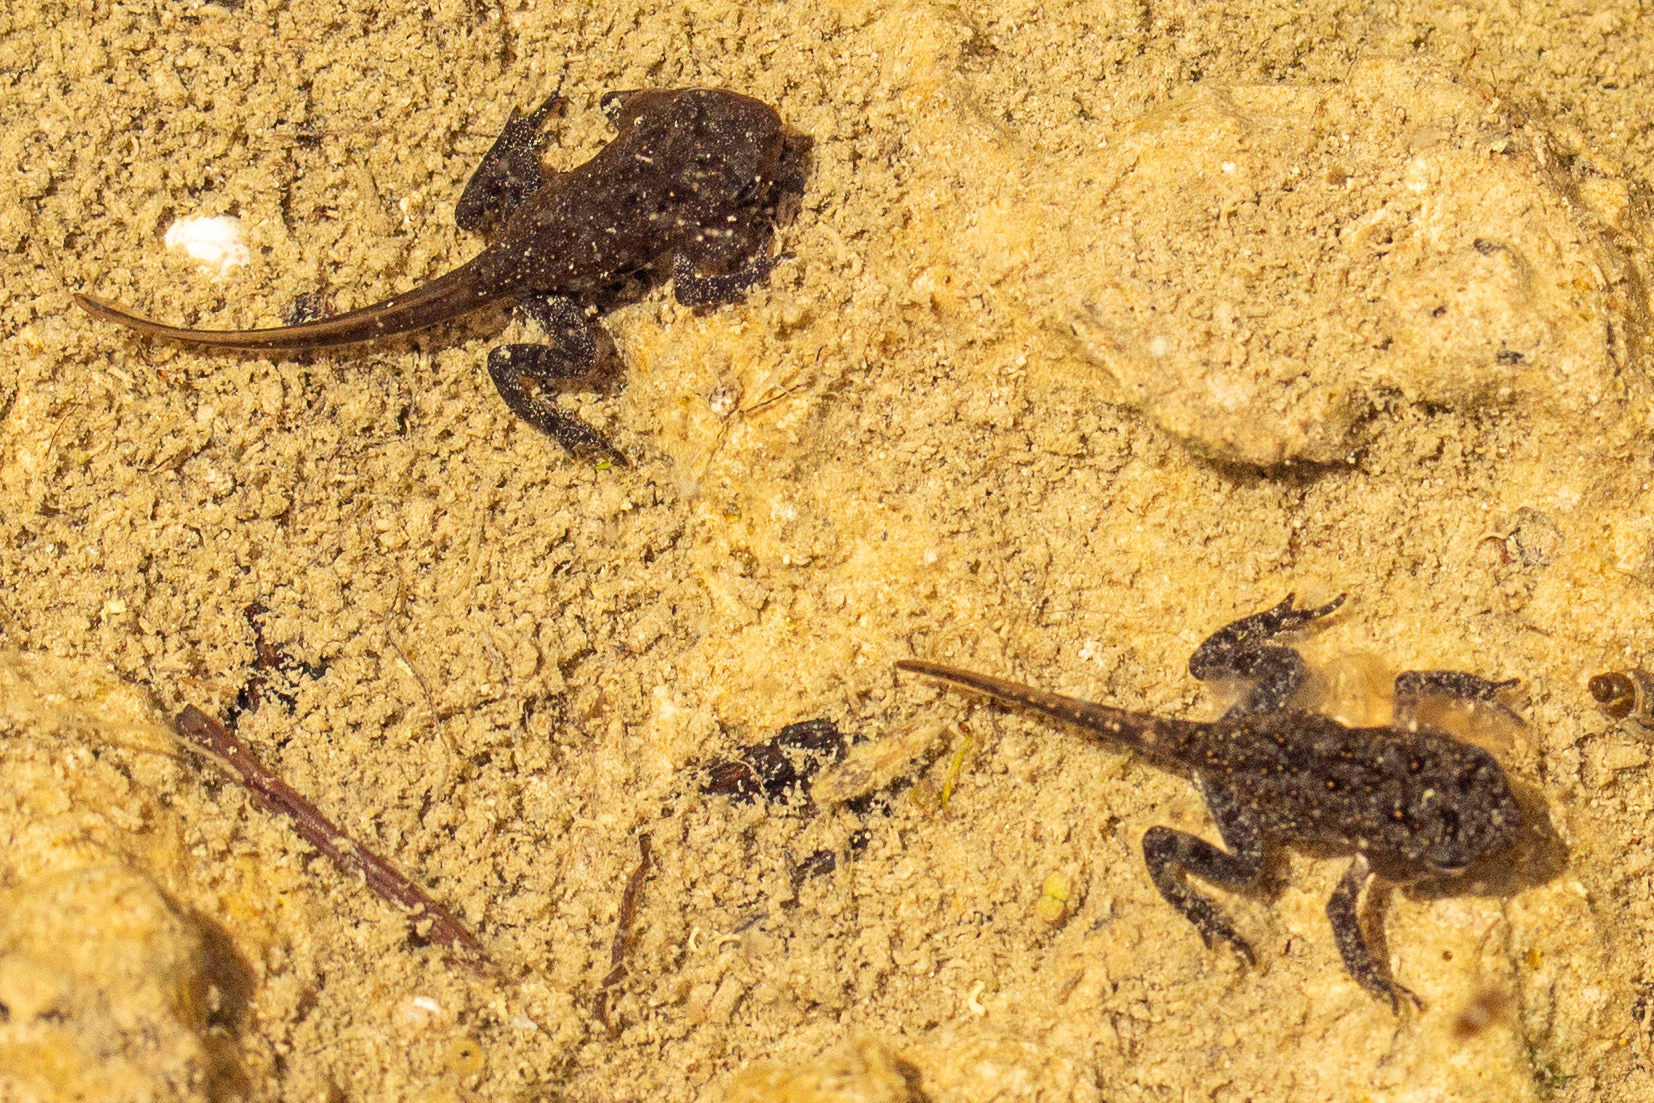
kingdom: Animalia
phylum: Chordata
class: Amphibia
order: Anura
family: Bufonidae
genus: Anaxyrus
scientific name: Anaxyrus americanus
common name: American toad
